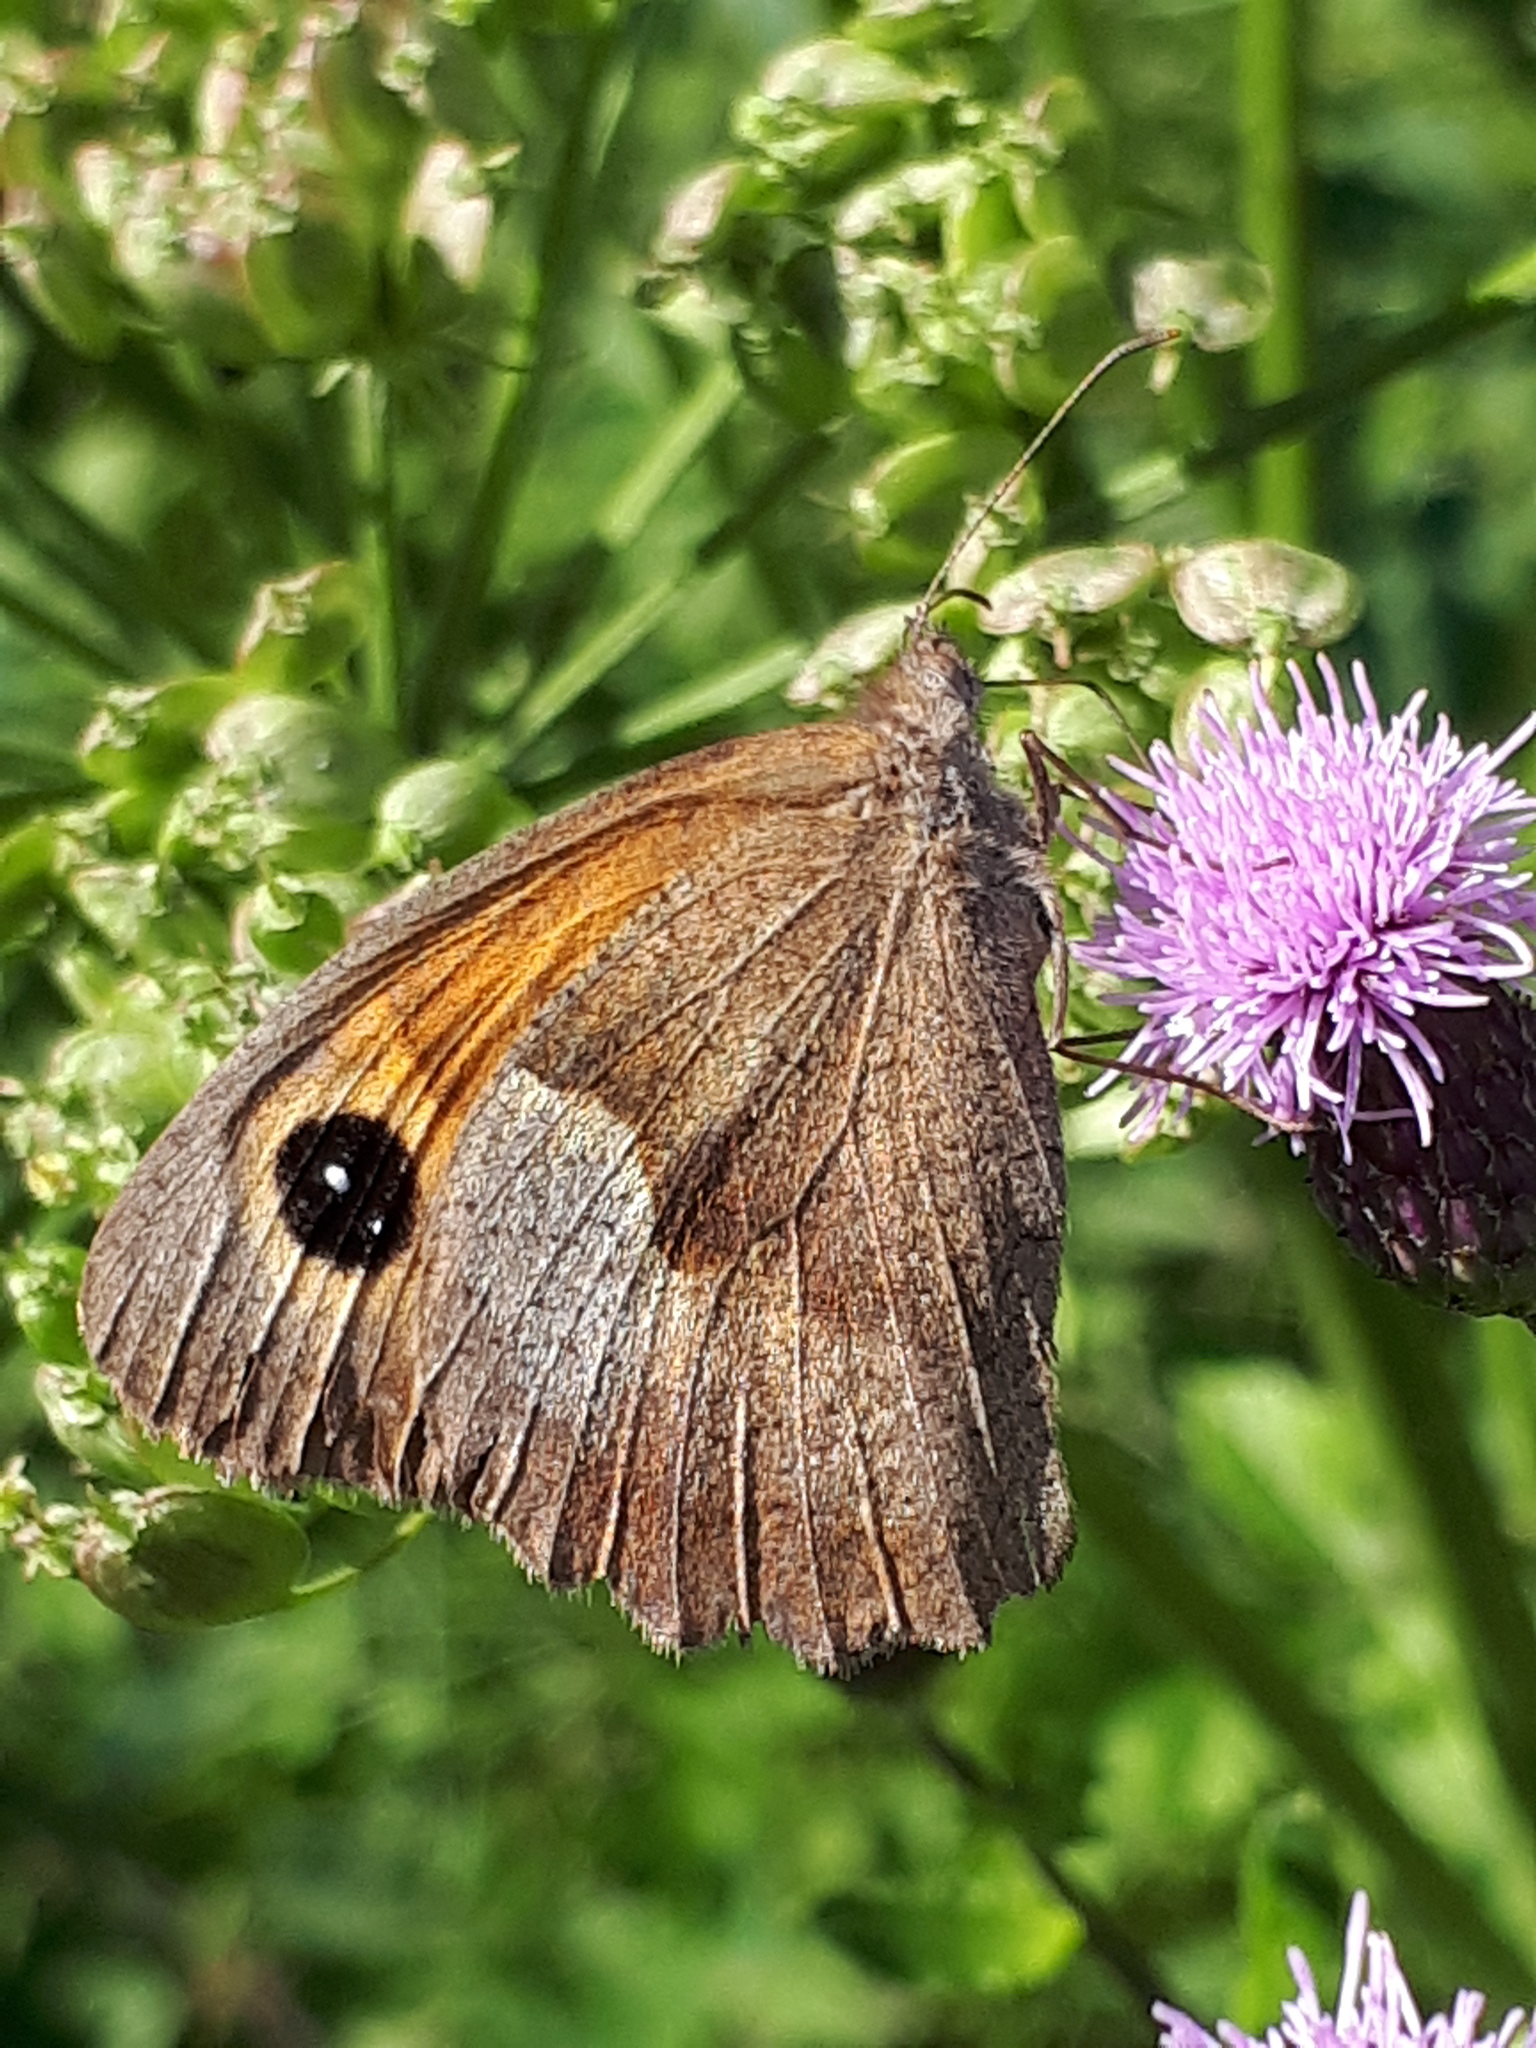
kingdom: Animalia
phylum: Arthropoda
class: Insecta
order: Lepidoptera
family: Nymphalidae
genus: Maniola
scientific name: Maniola jurtina
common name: Meadow brown
